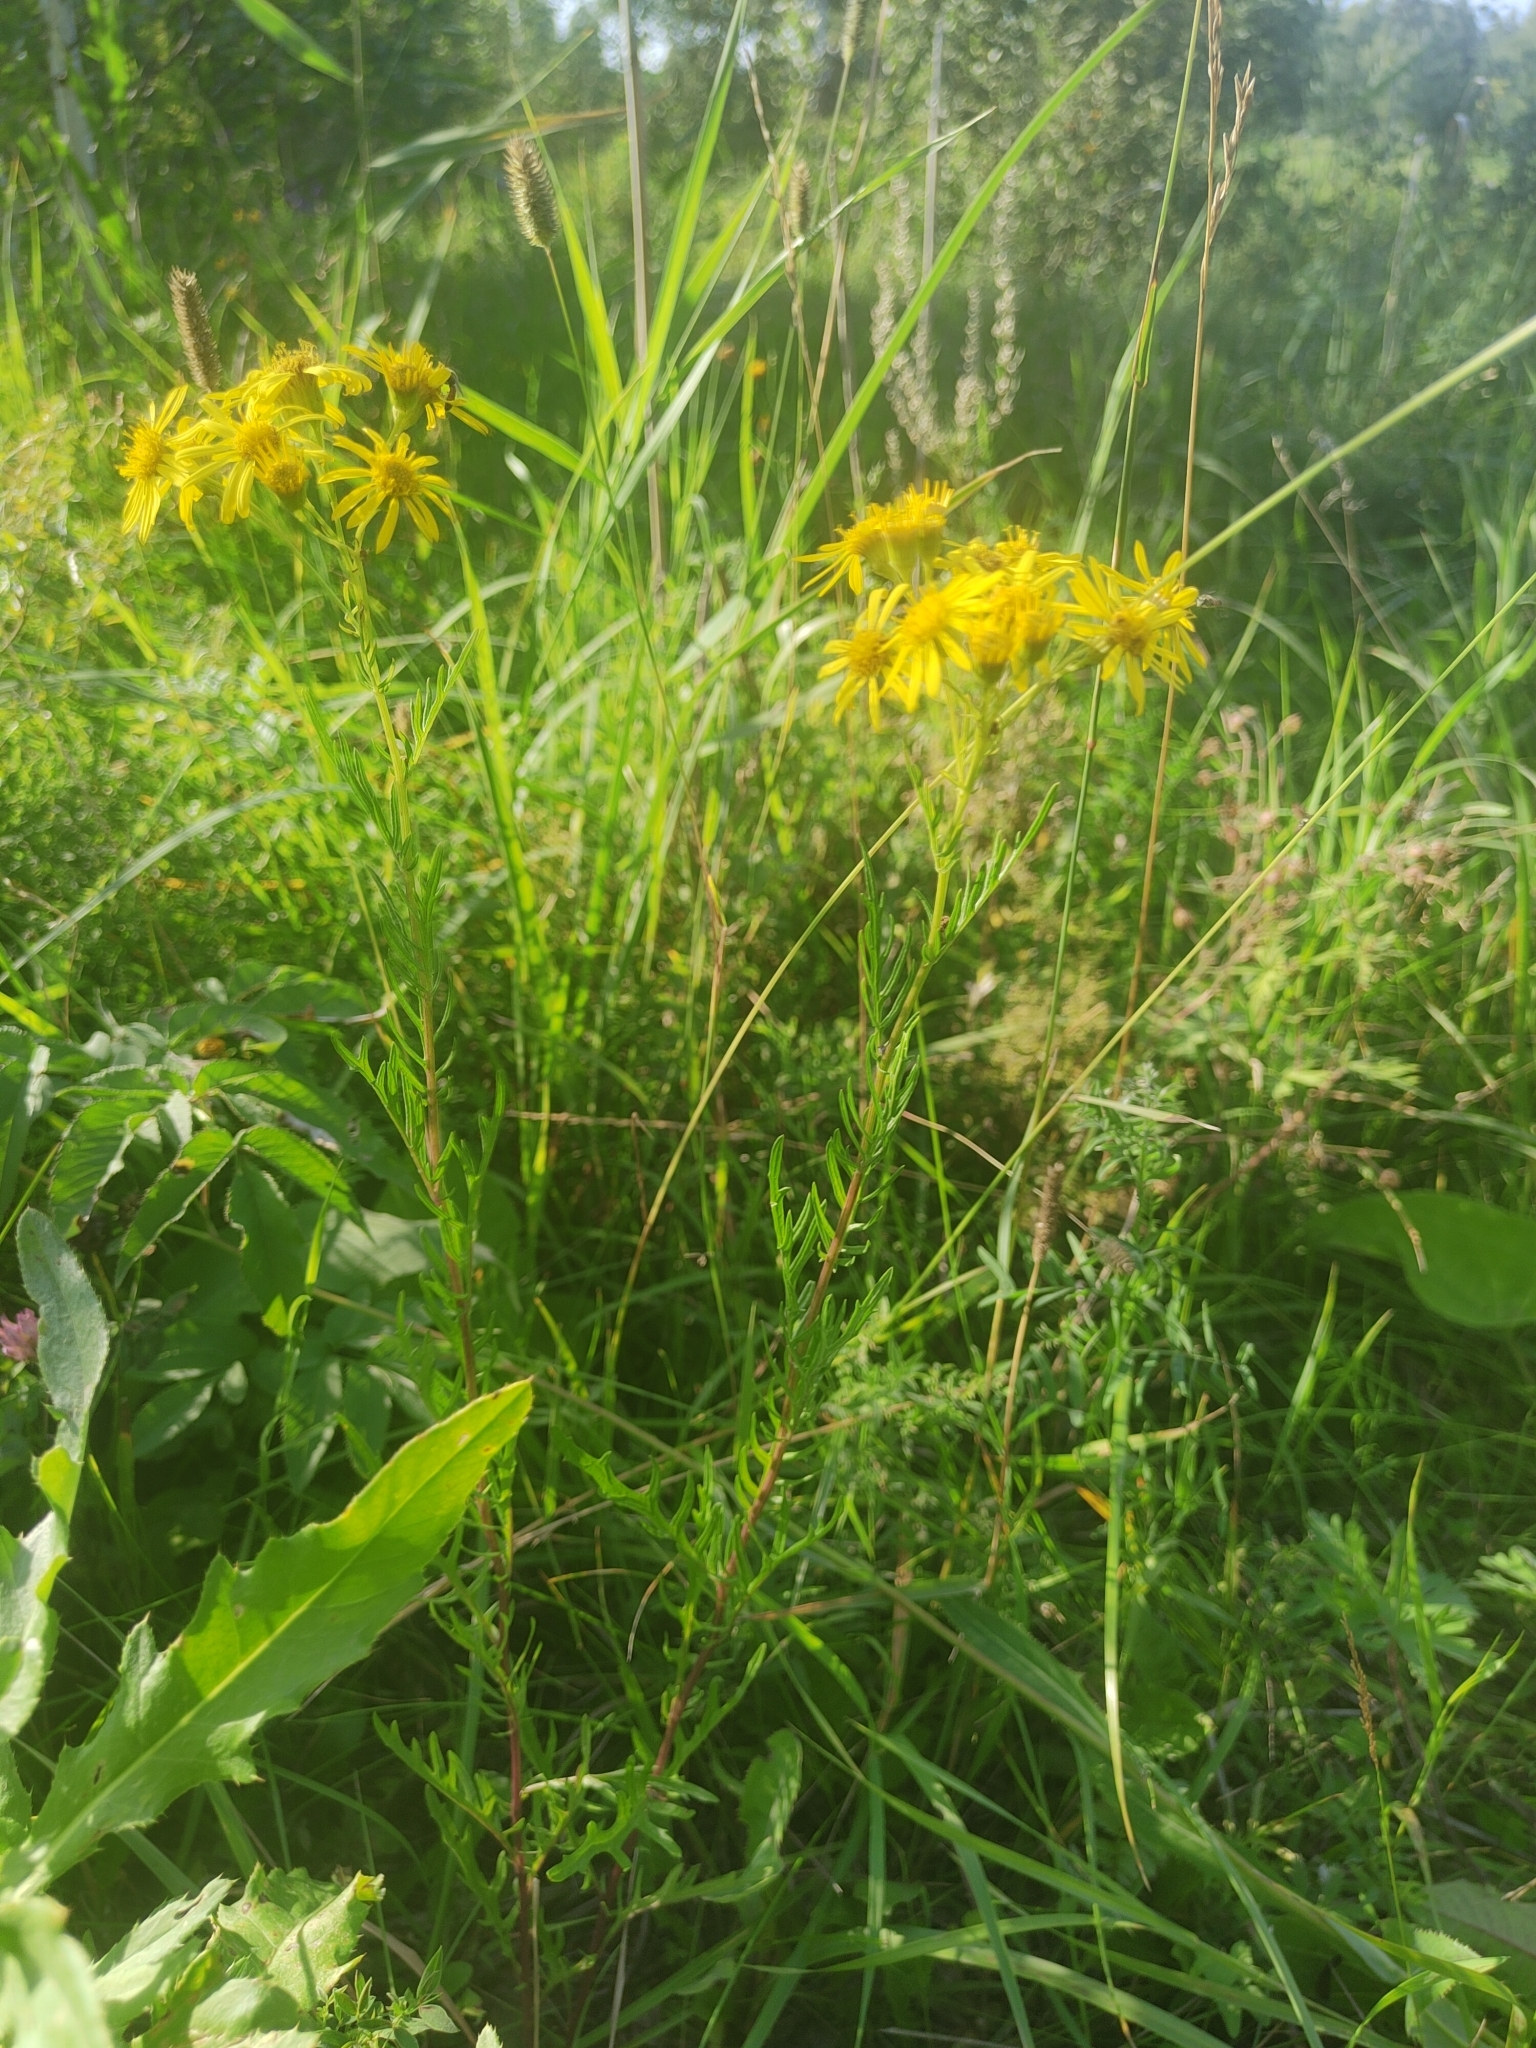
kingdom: Plantae
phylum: Tracheophyta
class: Magnoliopsida
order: Asterales
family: Asteraceae
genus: Jacobaea
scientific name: Jacobaea erucifolia
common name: Hoary ragwort
